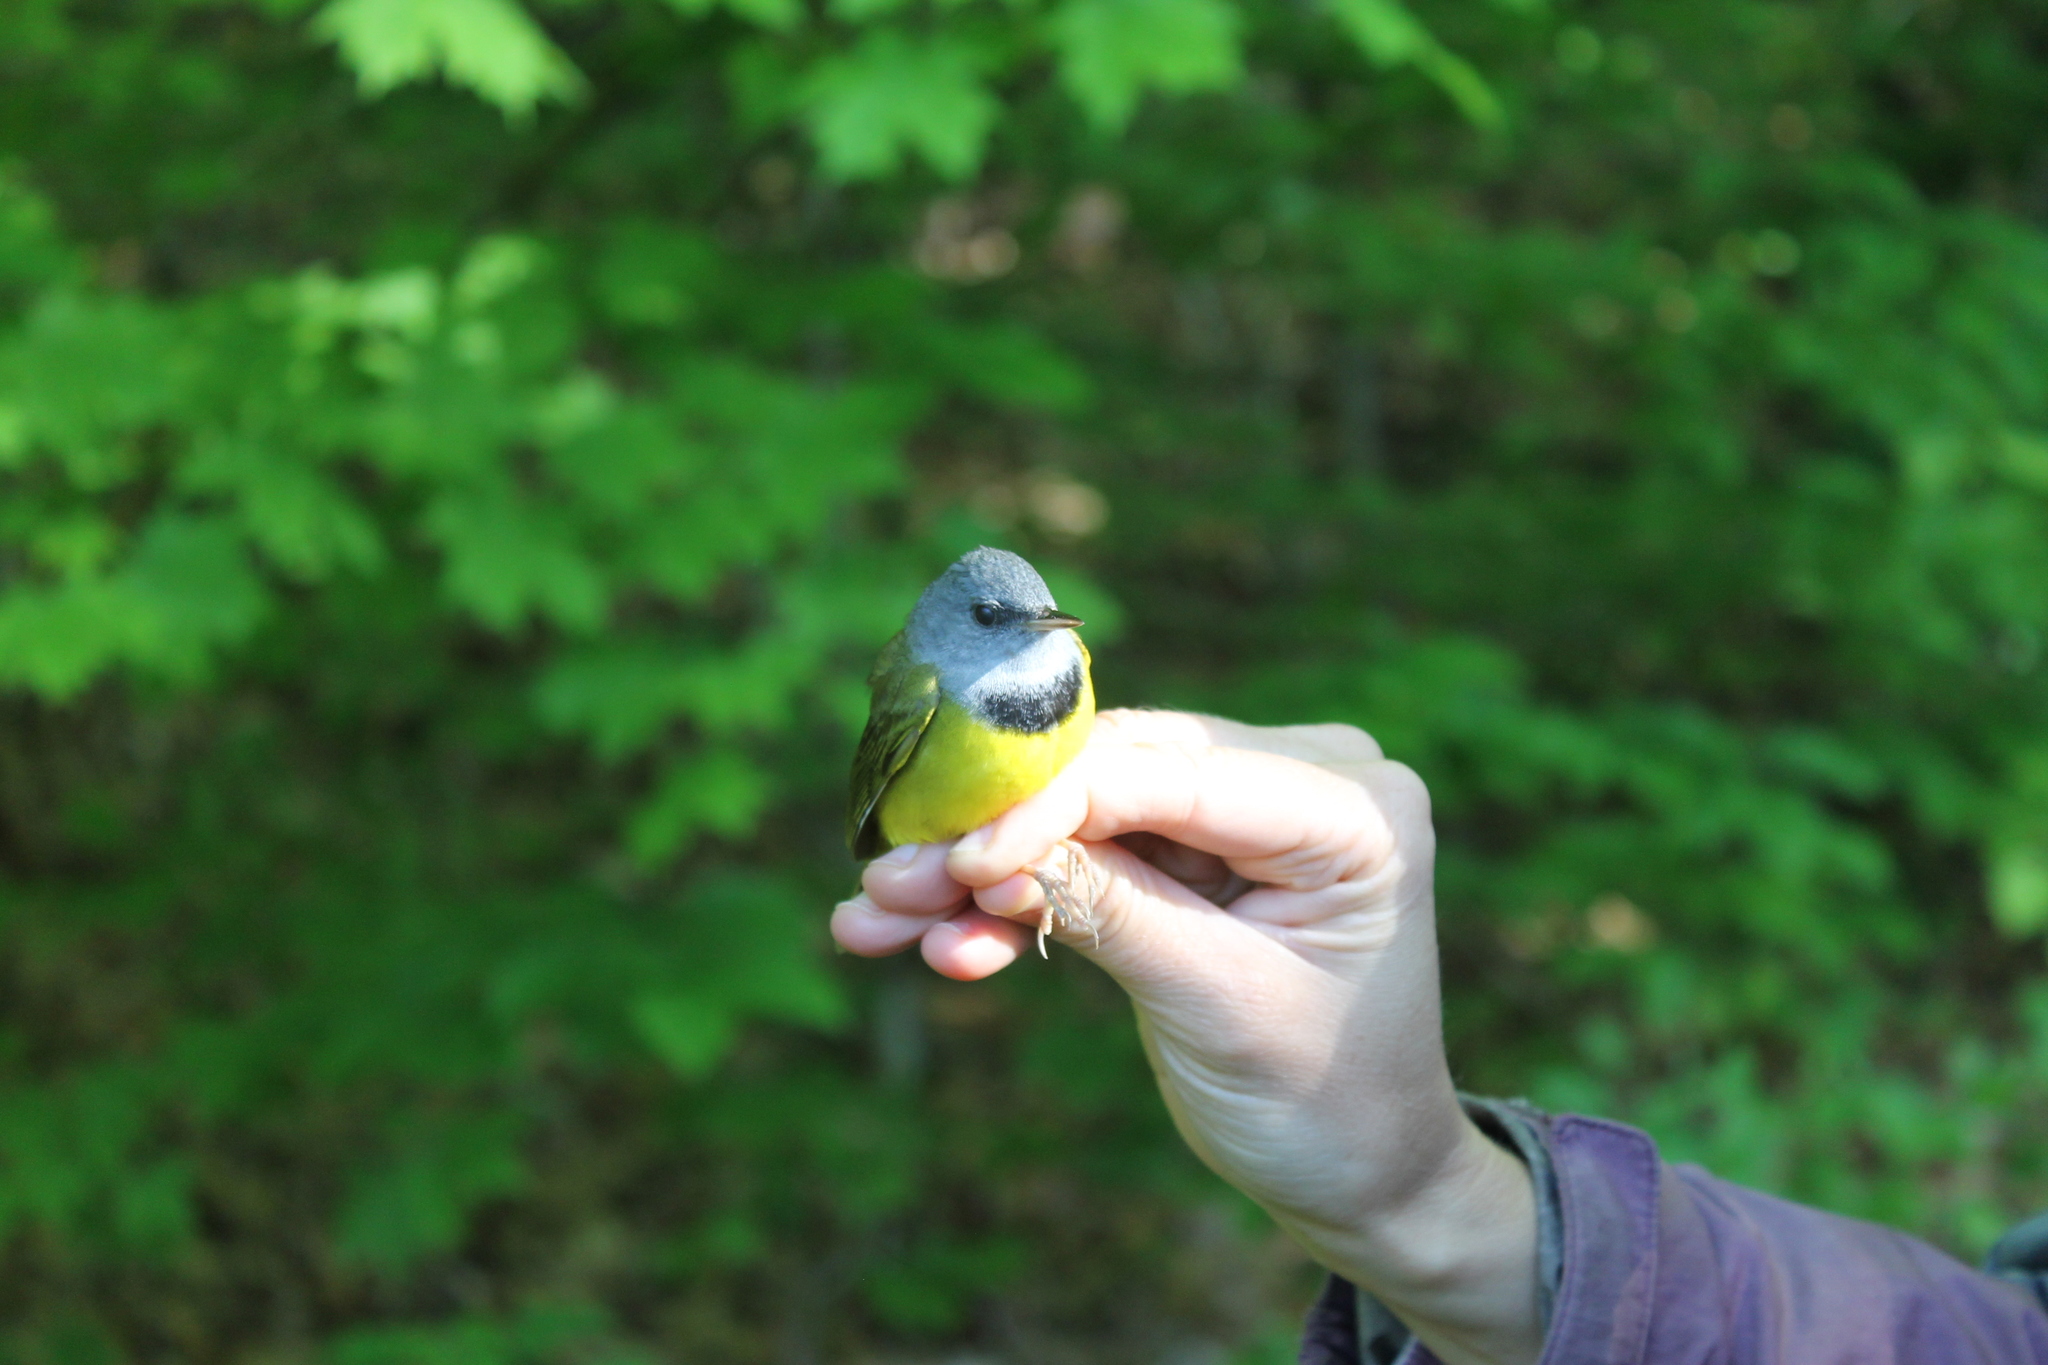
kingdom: Animalia
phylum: Chordata
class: Aves
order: Passeriformes
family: Parulidae
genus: Geothlypis
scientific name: Geothlypis philadelphia
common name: Mourning warbler
